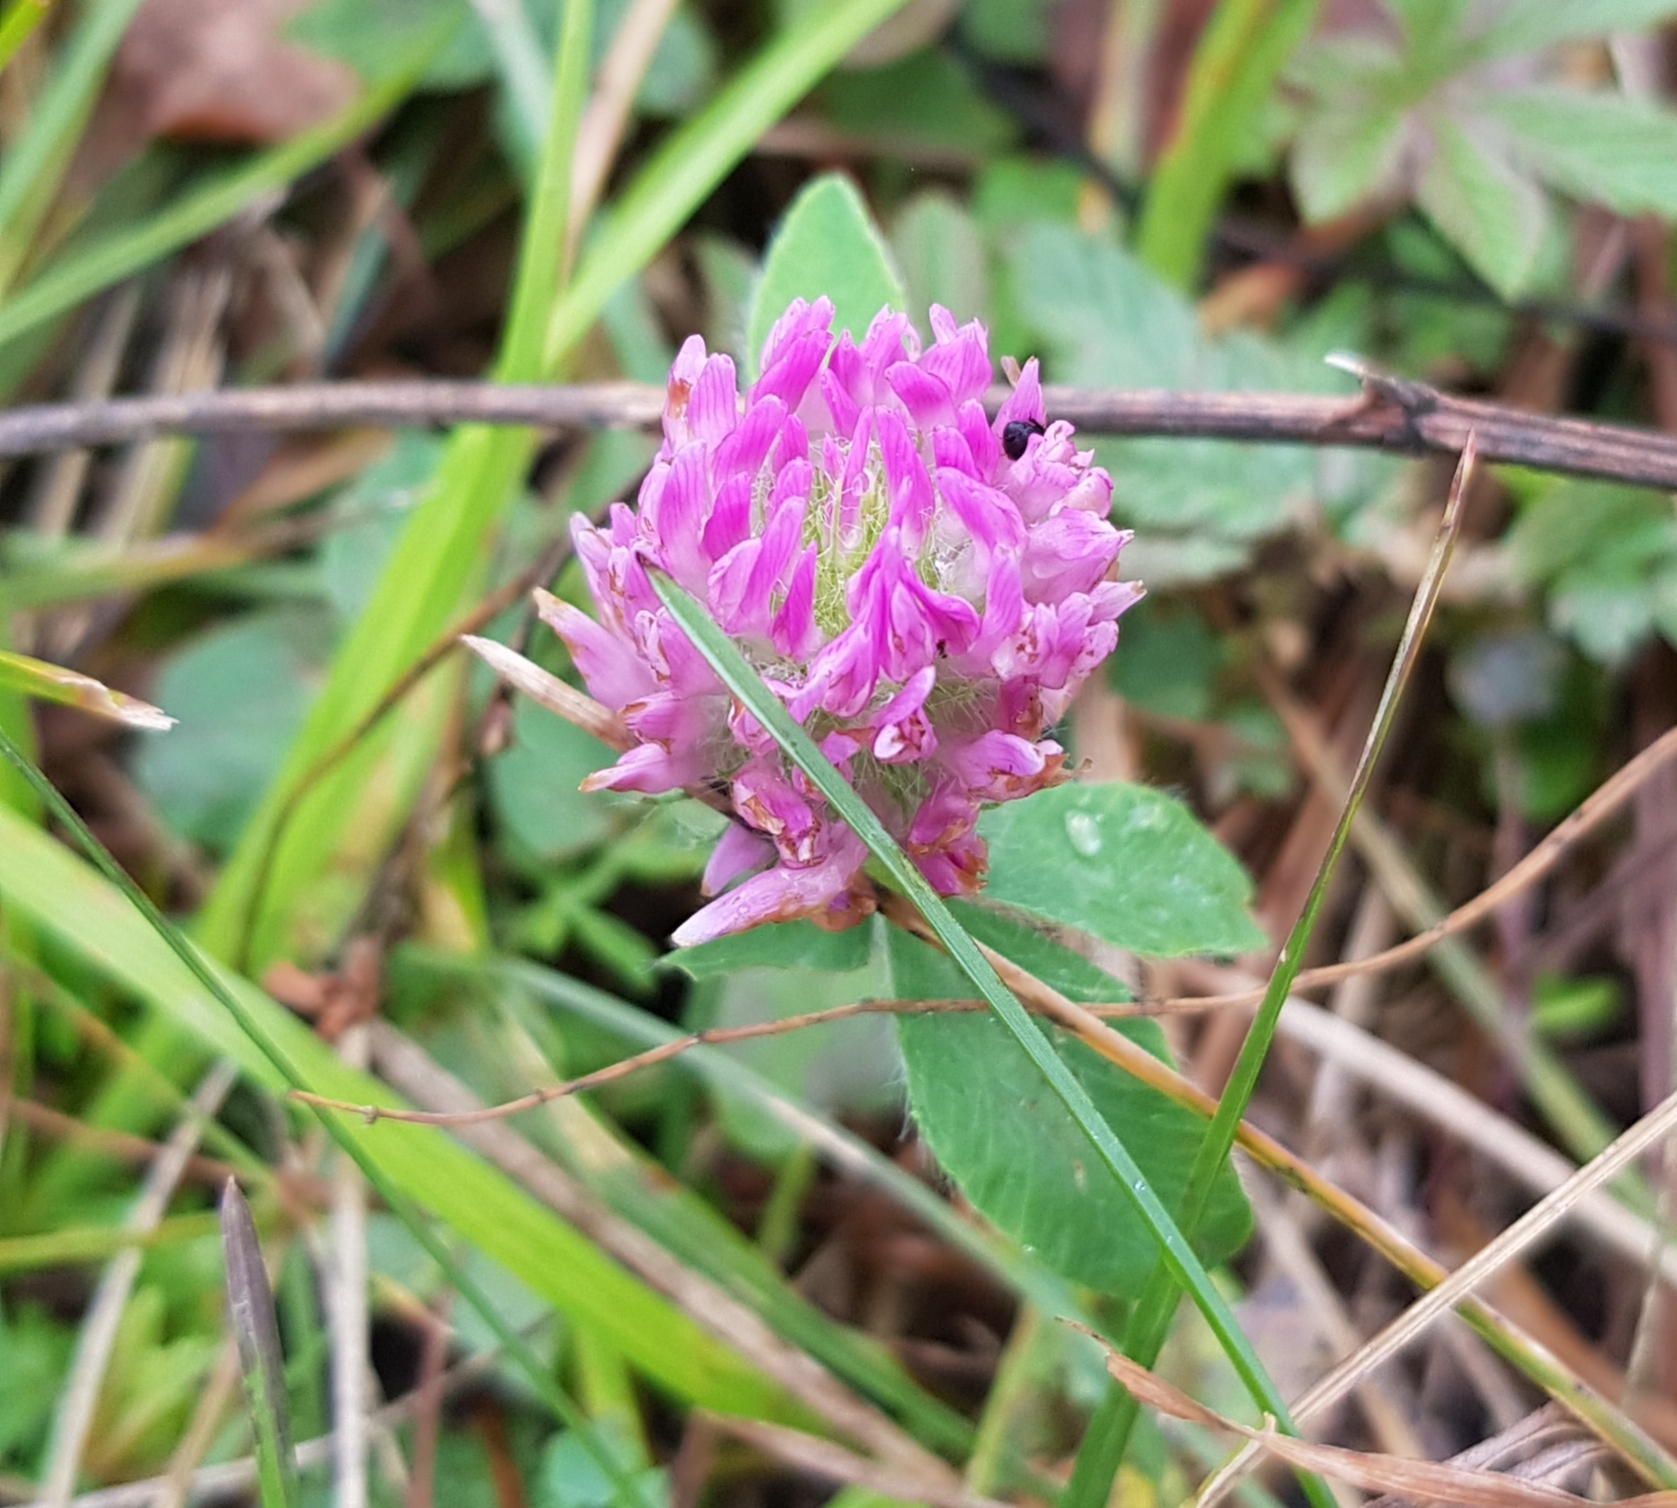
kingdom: Plantae
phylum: Tracheophyta
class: Magnoliopsida
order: Fabales
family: Fabaceae
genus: Trifolium
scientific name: Trifolium pratense
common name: Red clover
